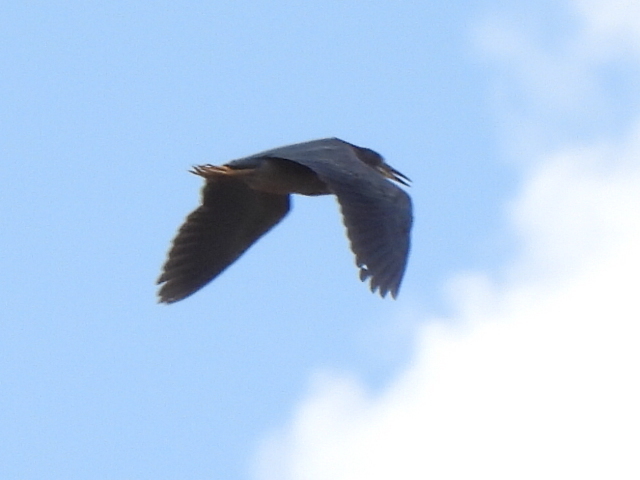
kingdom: Animalia
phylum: Chordata
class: Aves
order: Pelecaniformes
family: Ardeidae
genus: Butorides
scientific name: Butorides virescens
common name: Green heron
